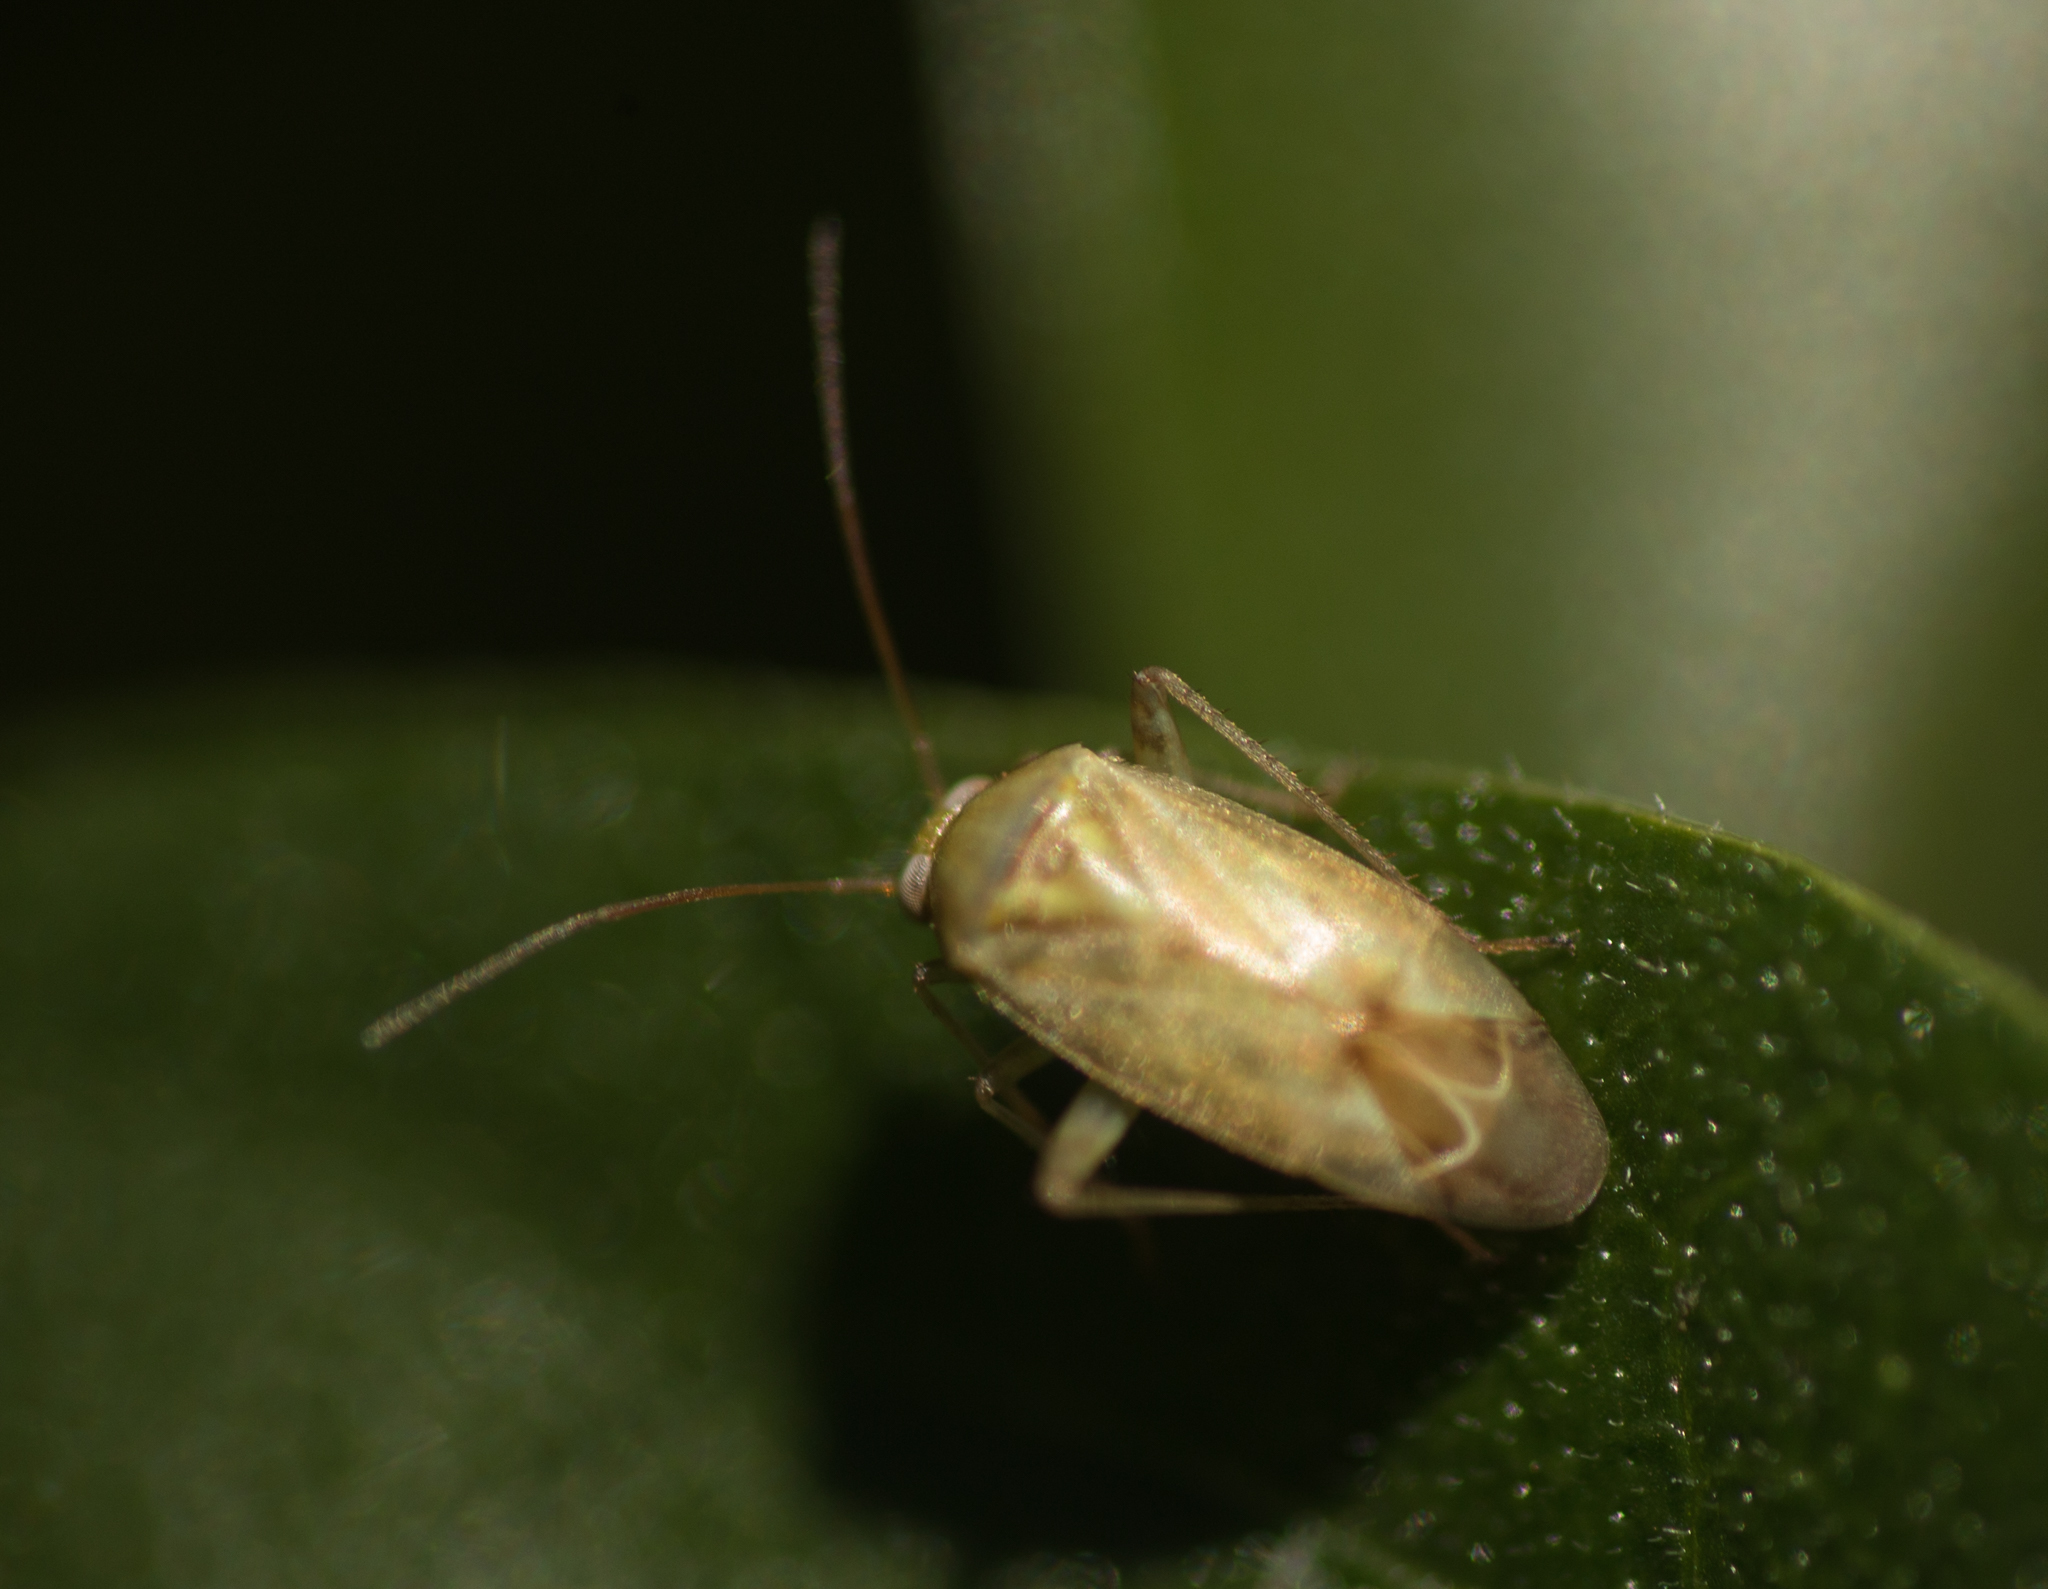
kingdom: Animalia
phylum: Arthropoda
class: Insecta
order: Hemiptera
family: Miridae
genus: Taylorilygus
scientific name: Taylorilygus apicalis
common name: Plant bug
